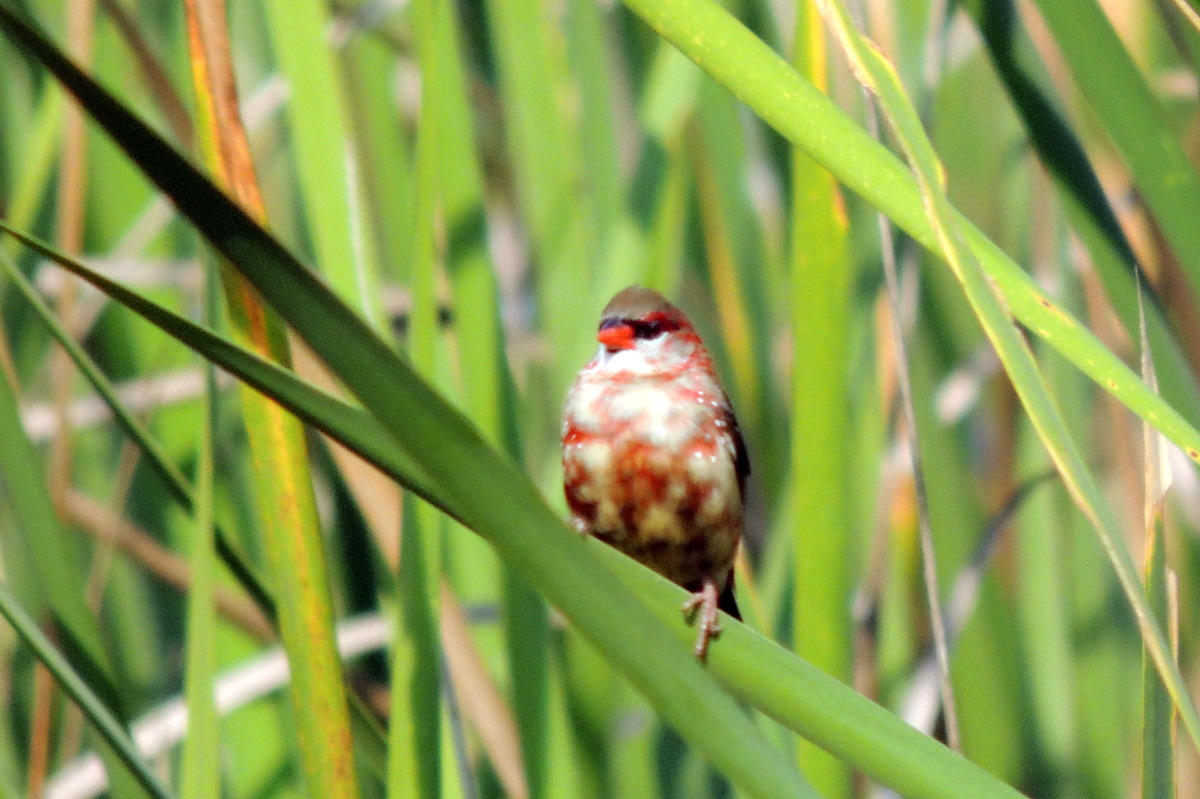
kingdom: Animalia
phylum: Chordata
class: Aves
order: Passeriformes
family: Estrildidae
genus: Amandava
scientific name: Amandava amandava
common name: Red avadavat
